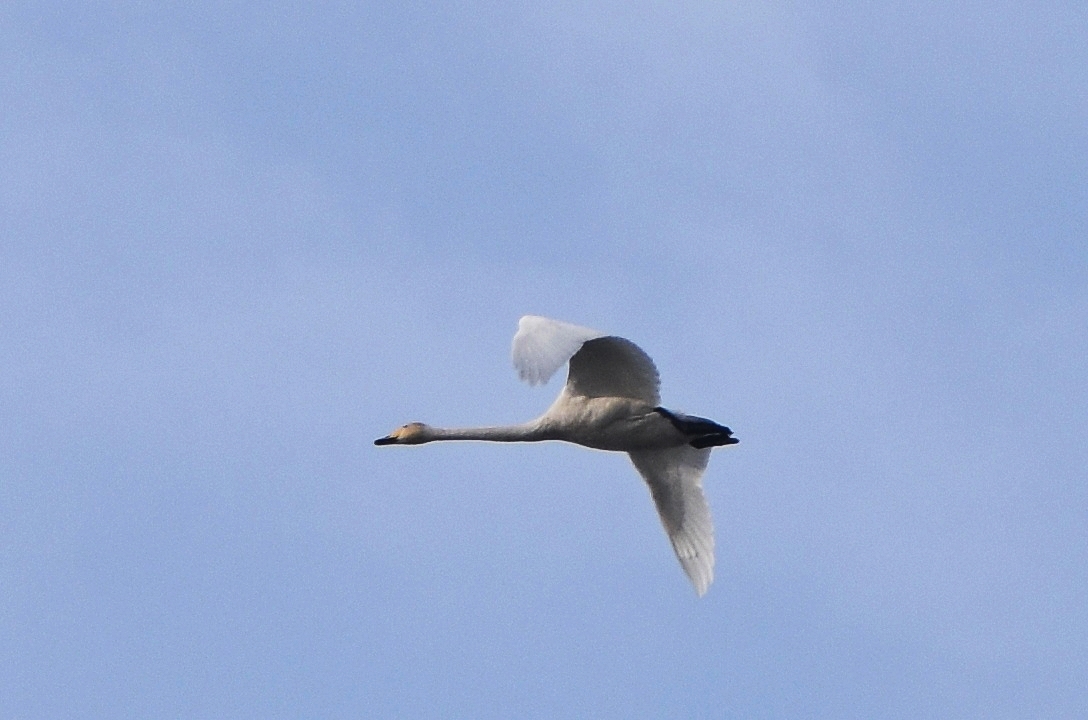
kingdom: Animalia
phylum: Chordata
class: Aves
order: Anseriformes
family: Anatidae
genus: Cygnus
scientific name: Cygnus cygnus
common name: Whooper swan
